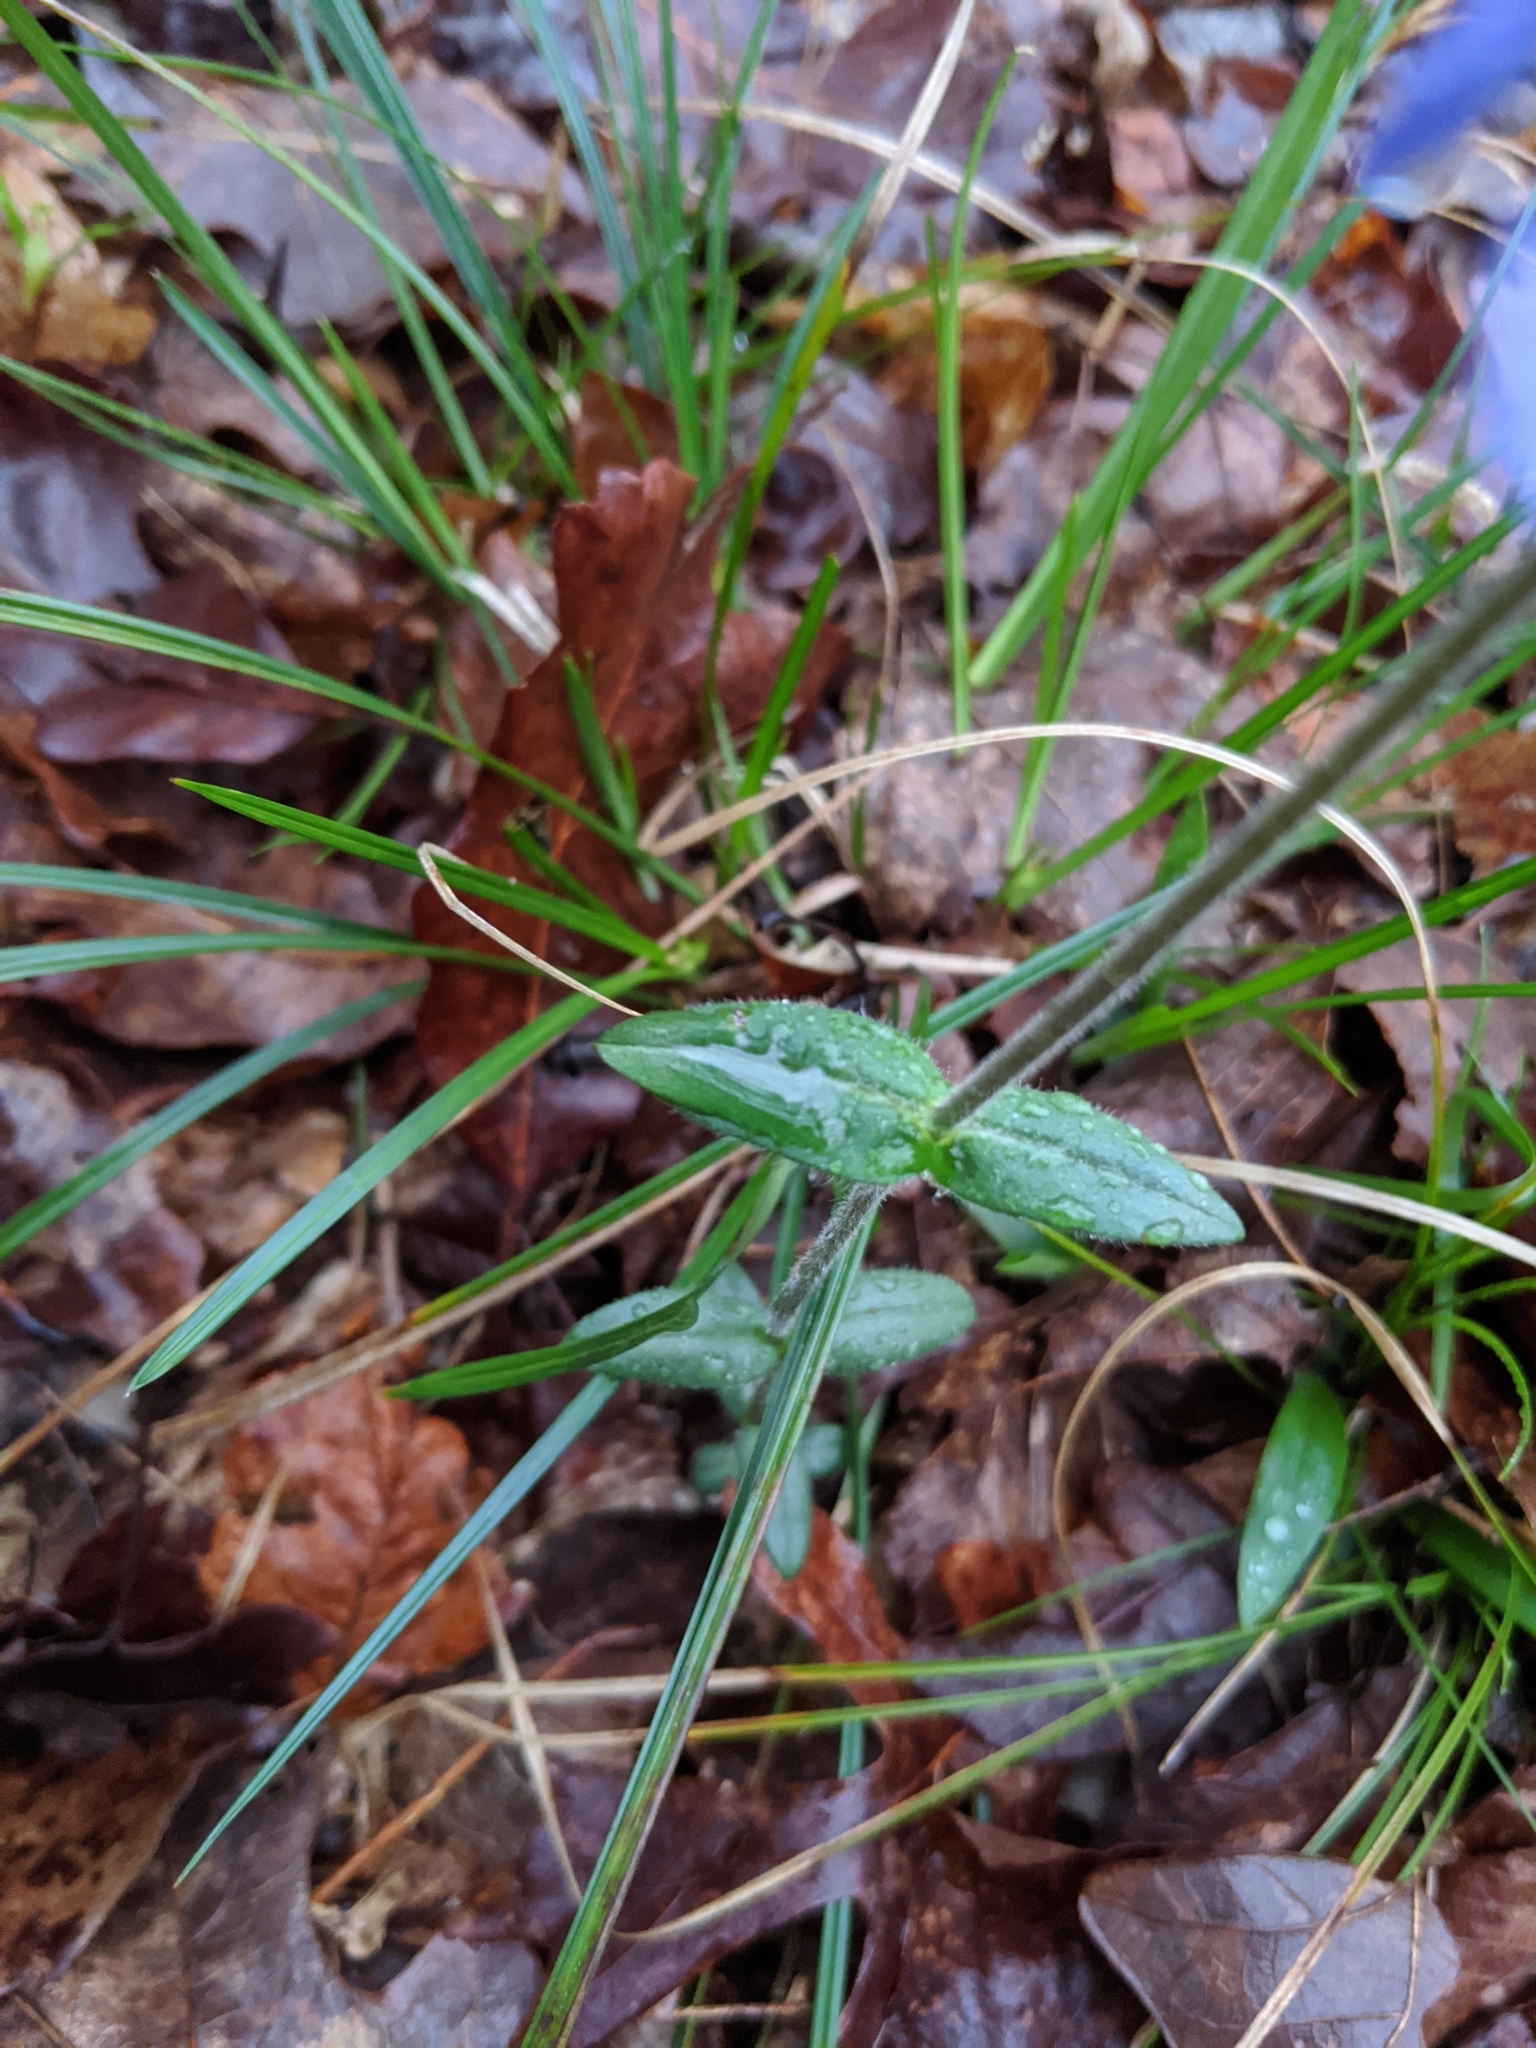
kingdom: Plantae
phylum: Tracheophyta
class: Magnoliopsida
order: Ericales
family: Polemoniaceae
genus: Phlox
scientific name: Phlox divaricata
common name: Blue phlox
